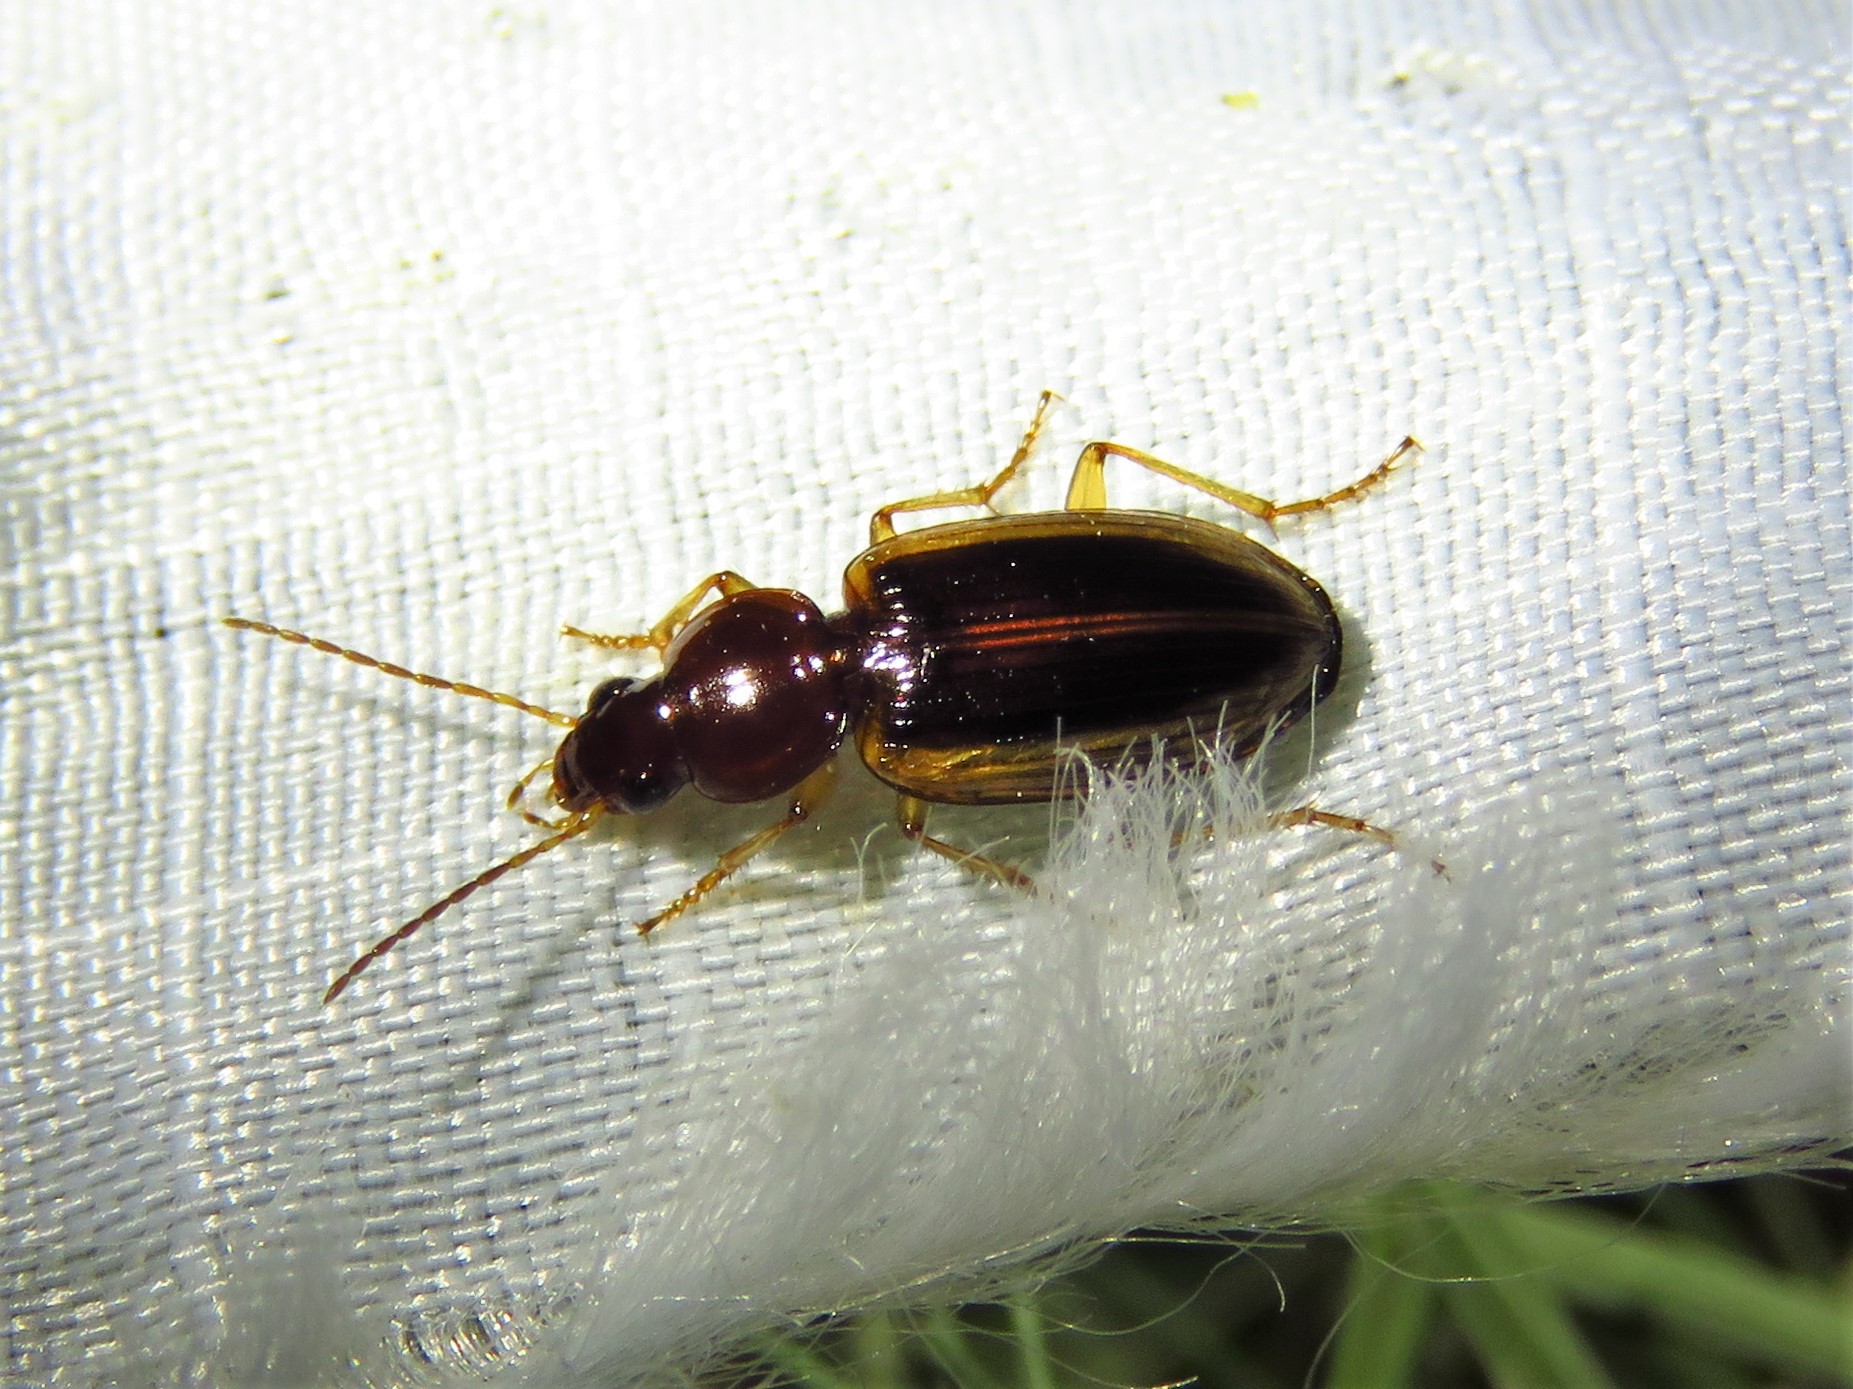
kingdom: Animalia
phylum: Arthropoda
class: Insecta
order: Coleoptera
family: Carabidae
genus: Agonum
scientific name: Agonum pallipes
